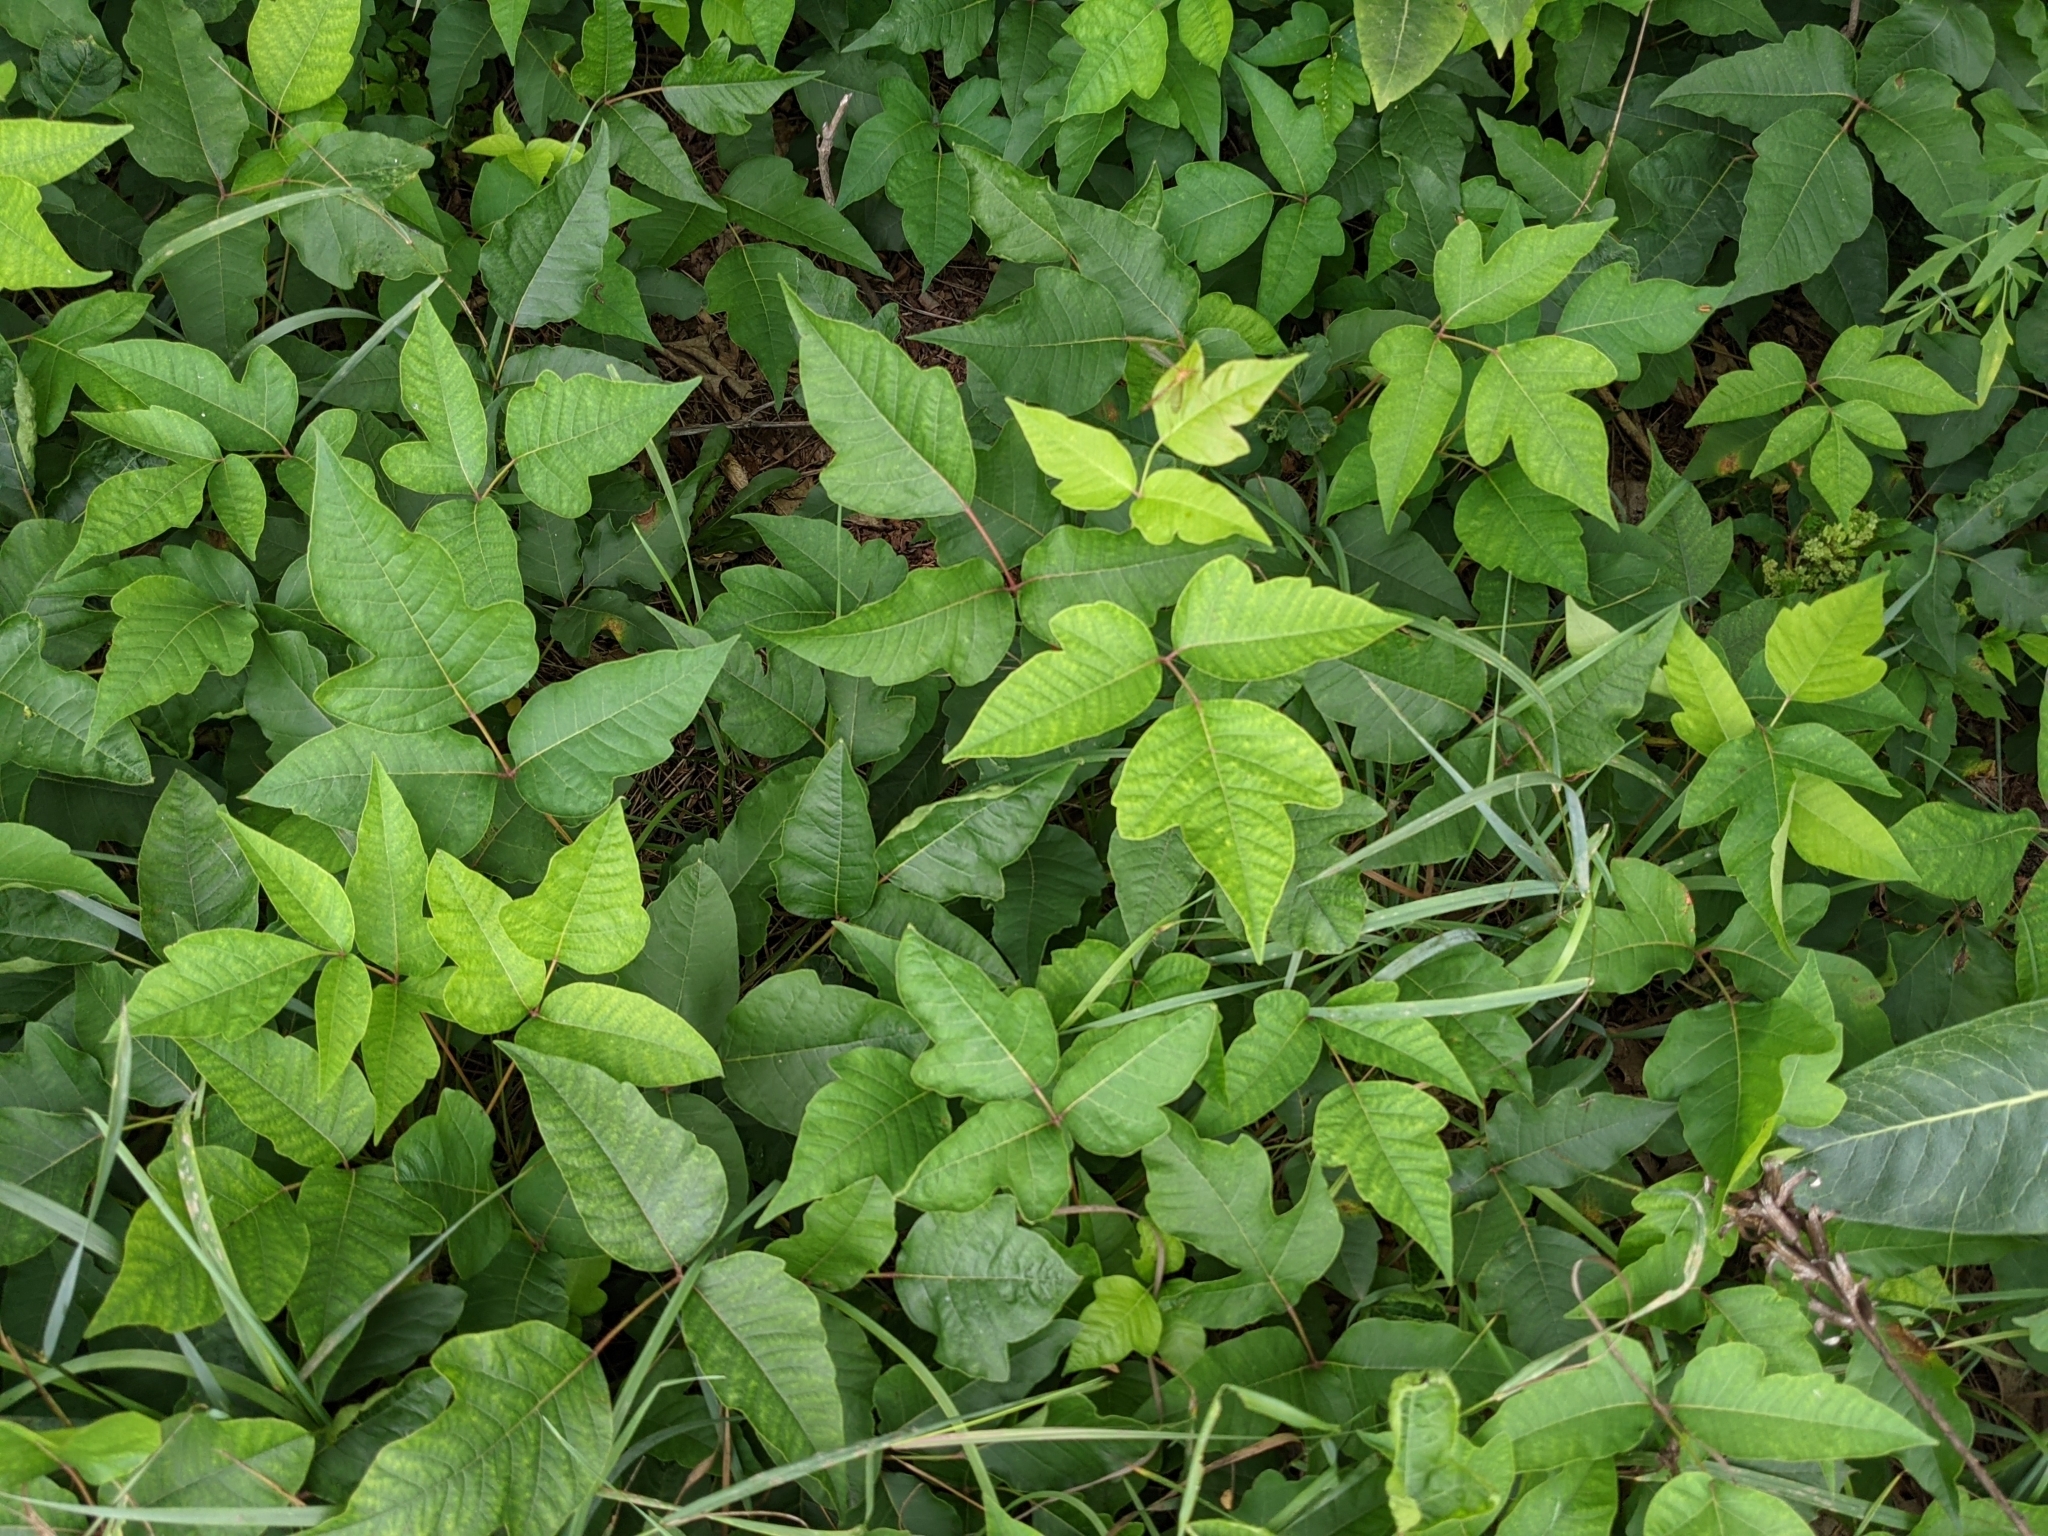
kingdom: Plantae
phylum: Tracheophyta
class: Magnoliopsida
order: Sapindales
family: Anacardiaceae
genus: Toxicodendron
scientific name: Toxicodendron radicans
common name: Poison ivy
